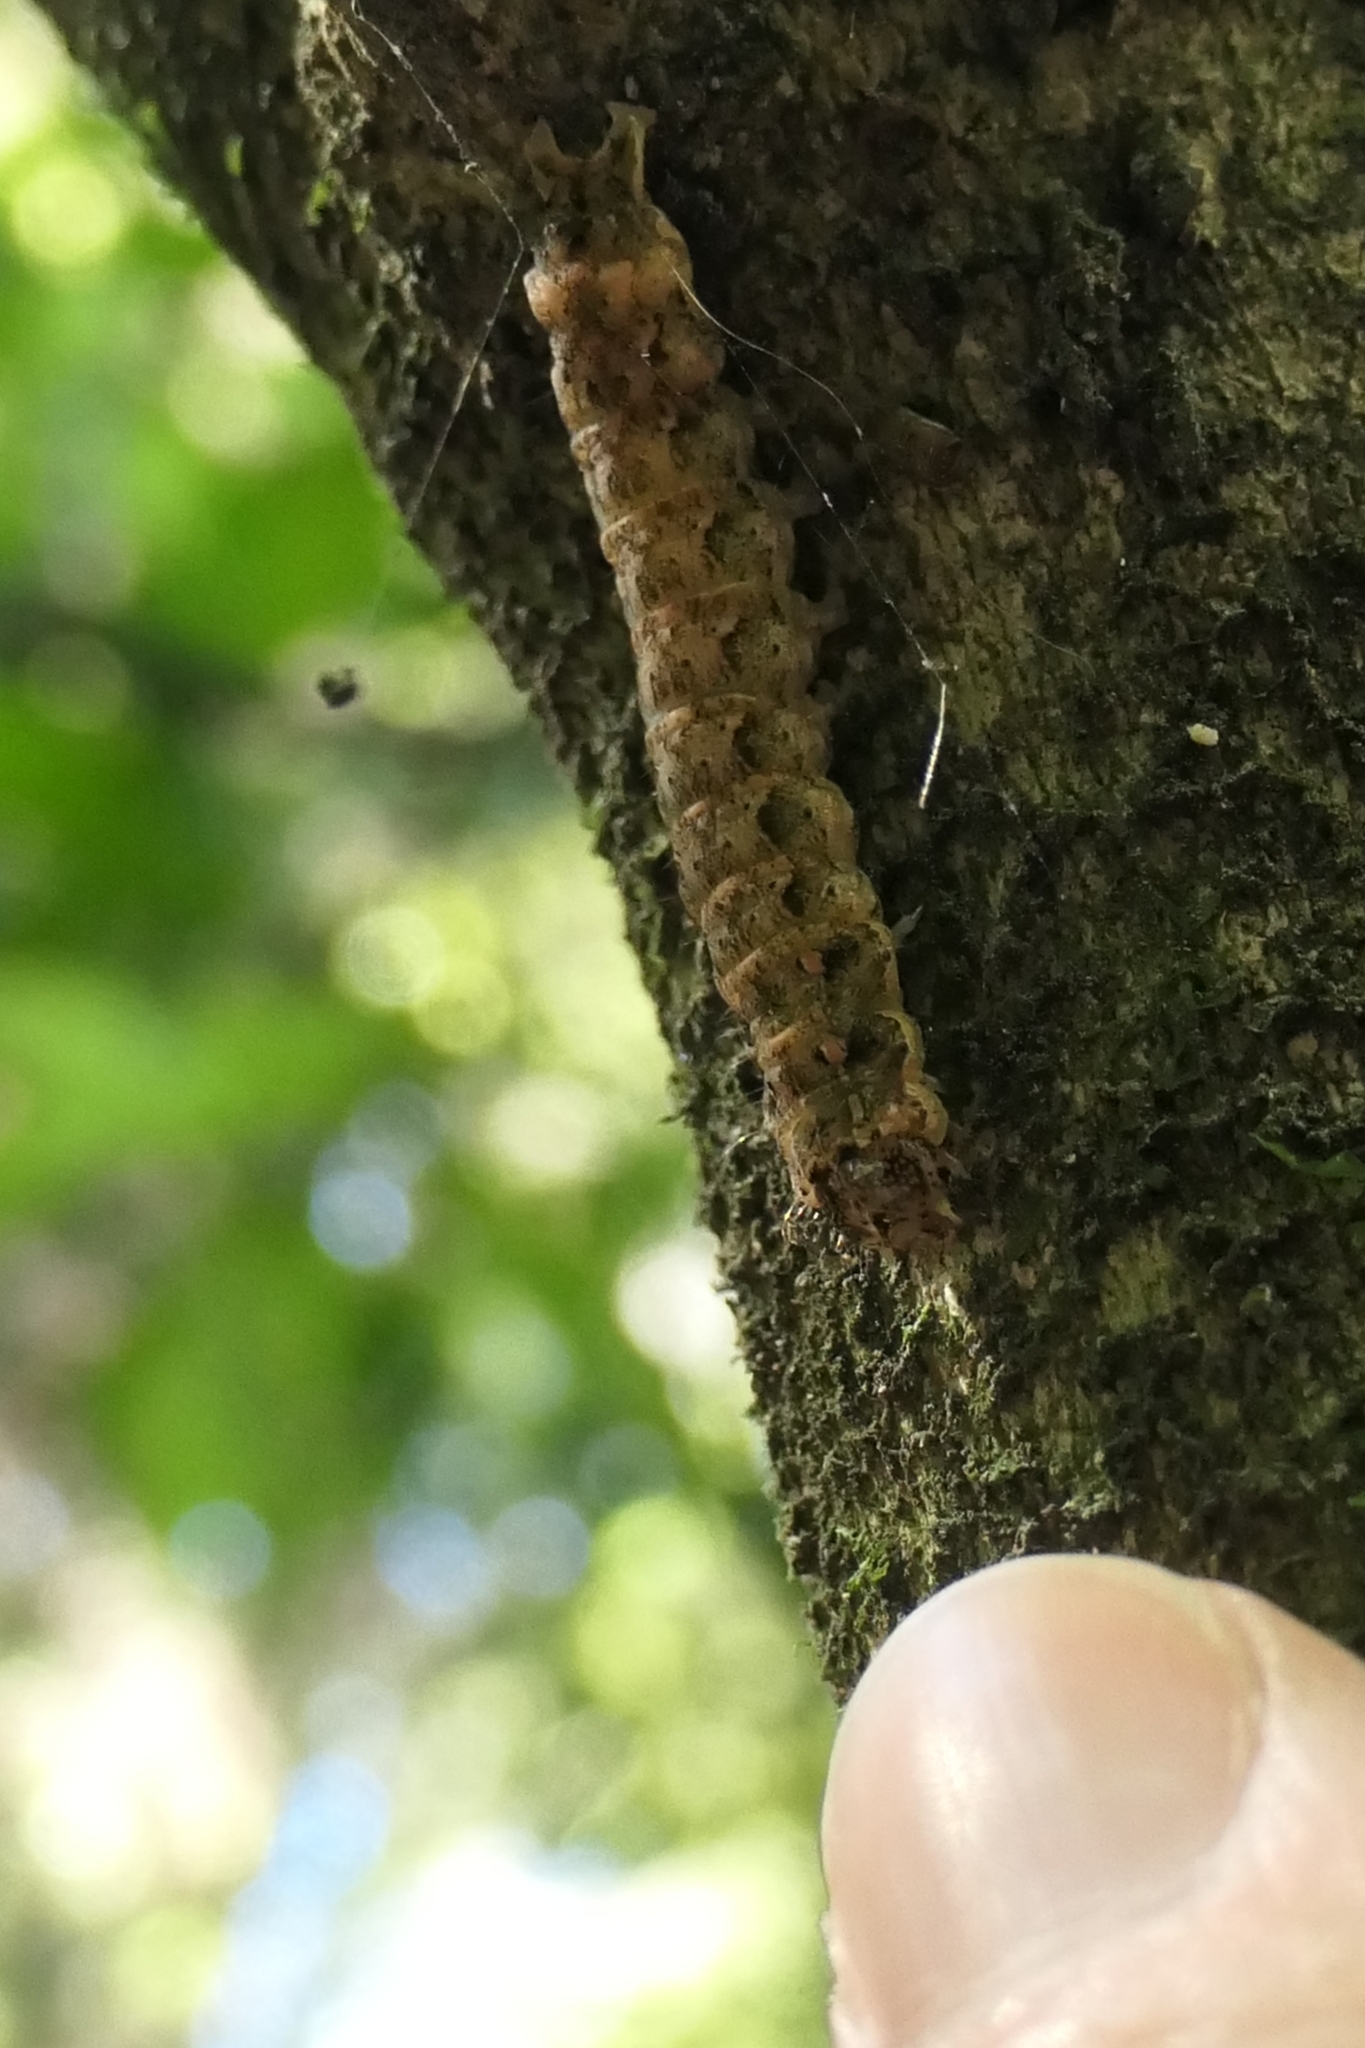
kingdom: Animalia
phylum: Arthropoda
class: Insecta
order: Lepidoptera
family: Noctuidae
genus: Feredayia
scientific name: Feredayia grammosa
